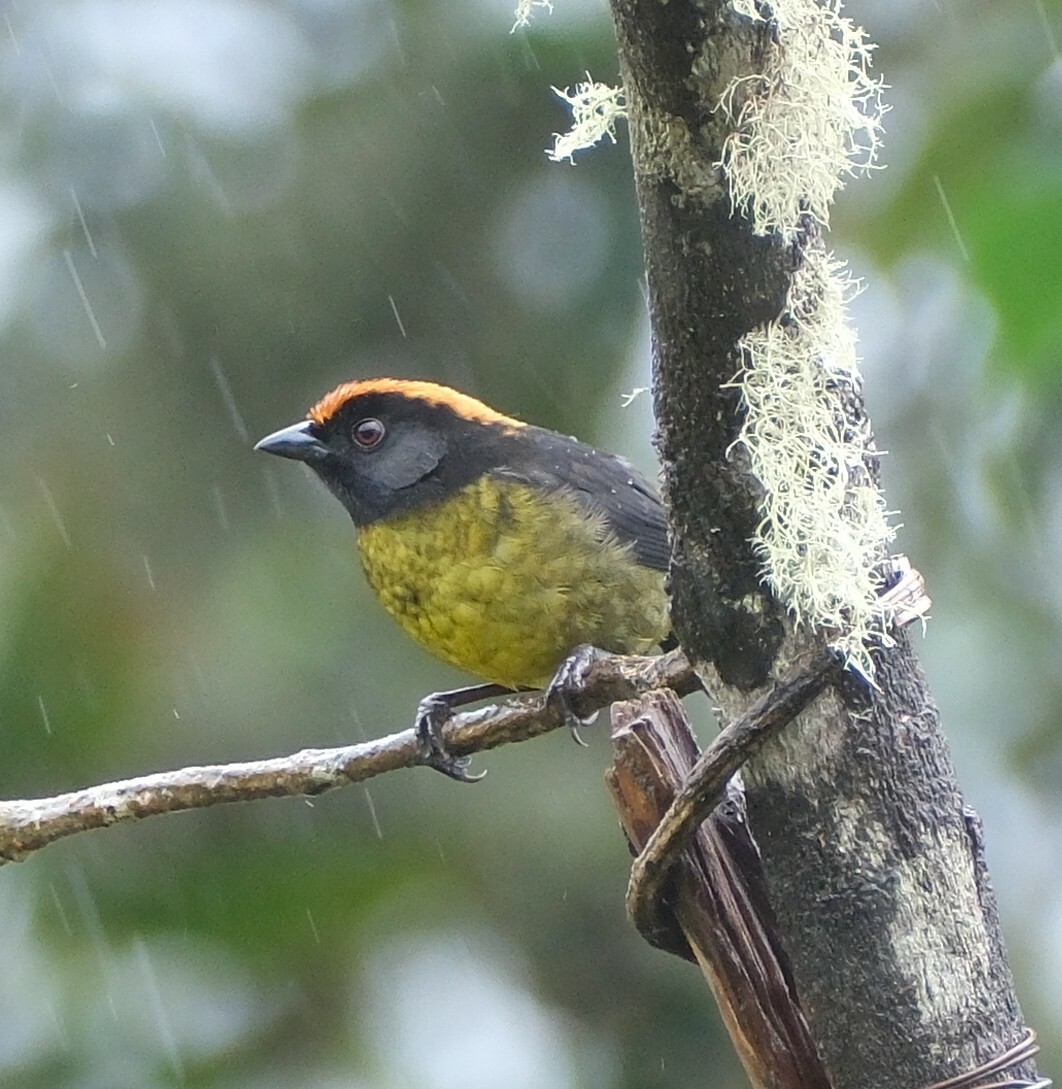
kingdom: Animalia
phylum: Chordata
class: Aves
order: Passeriformes
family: Passerellidae
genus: Atlapetes
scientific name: Atlapetes melanolaemus
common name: Grey-eared brush finch
